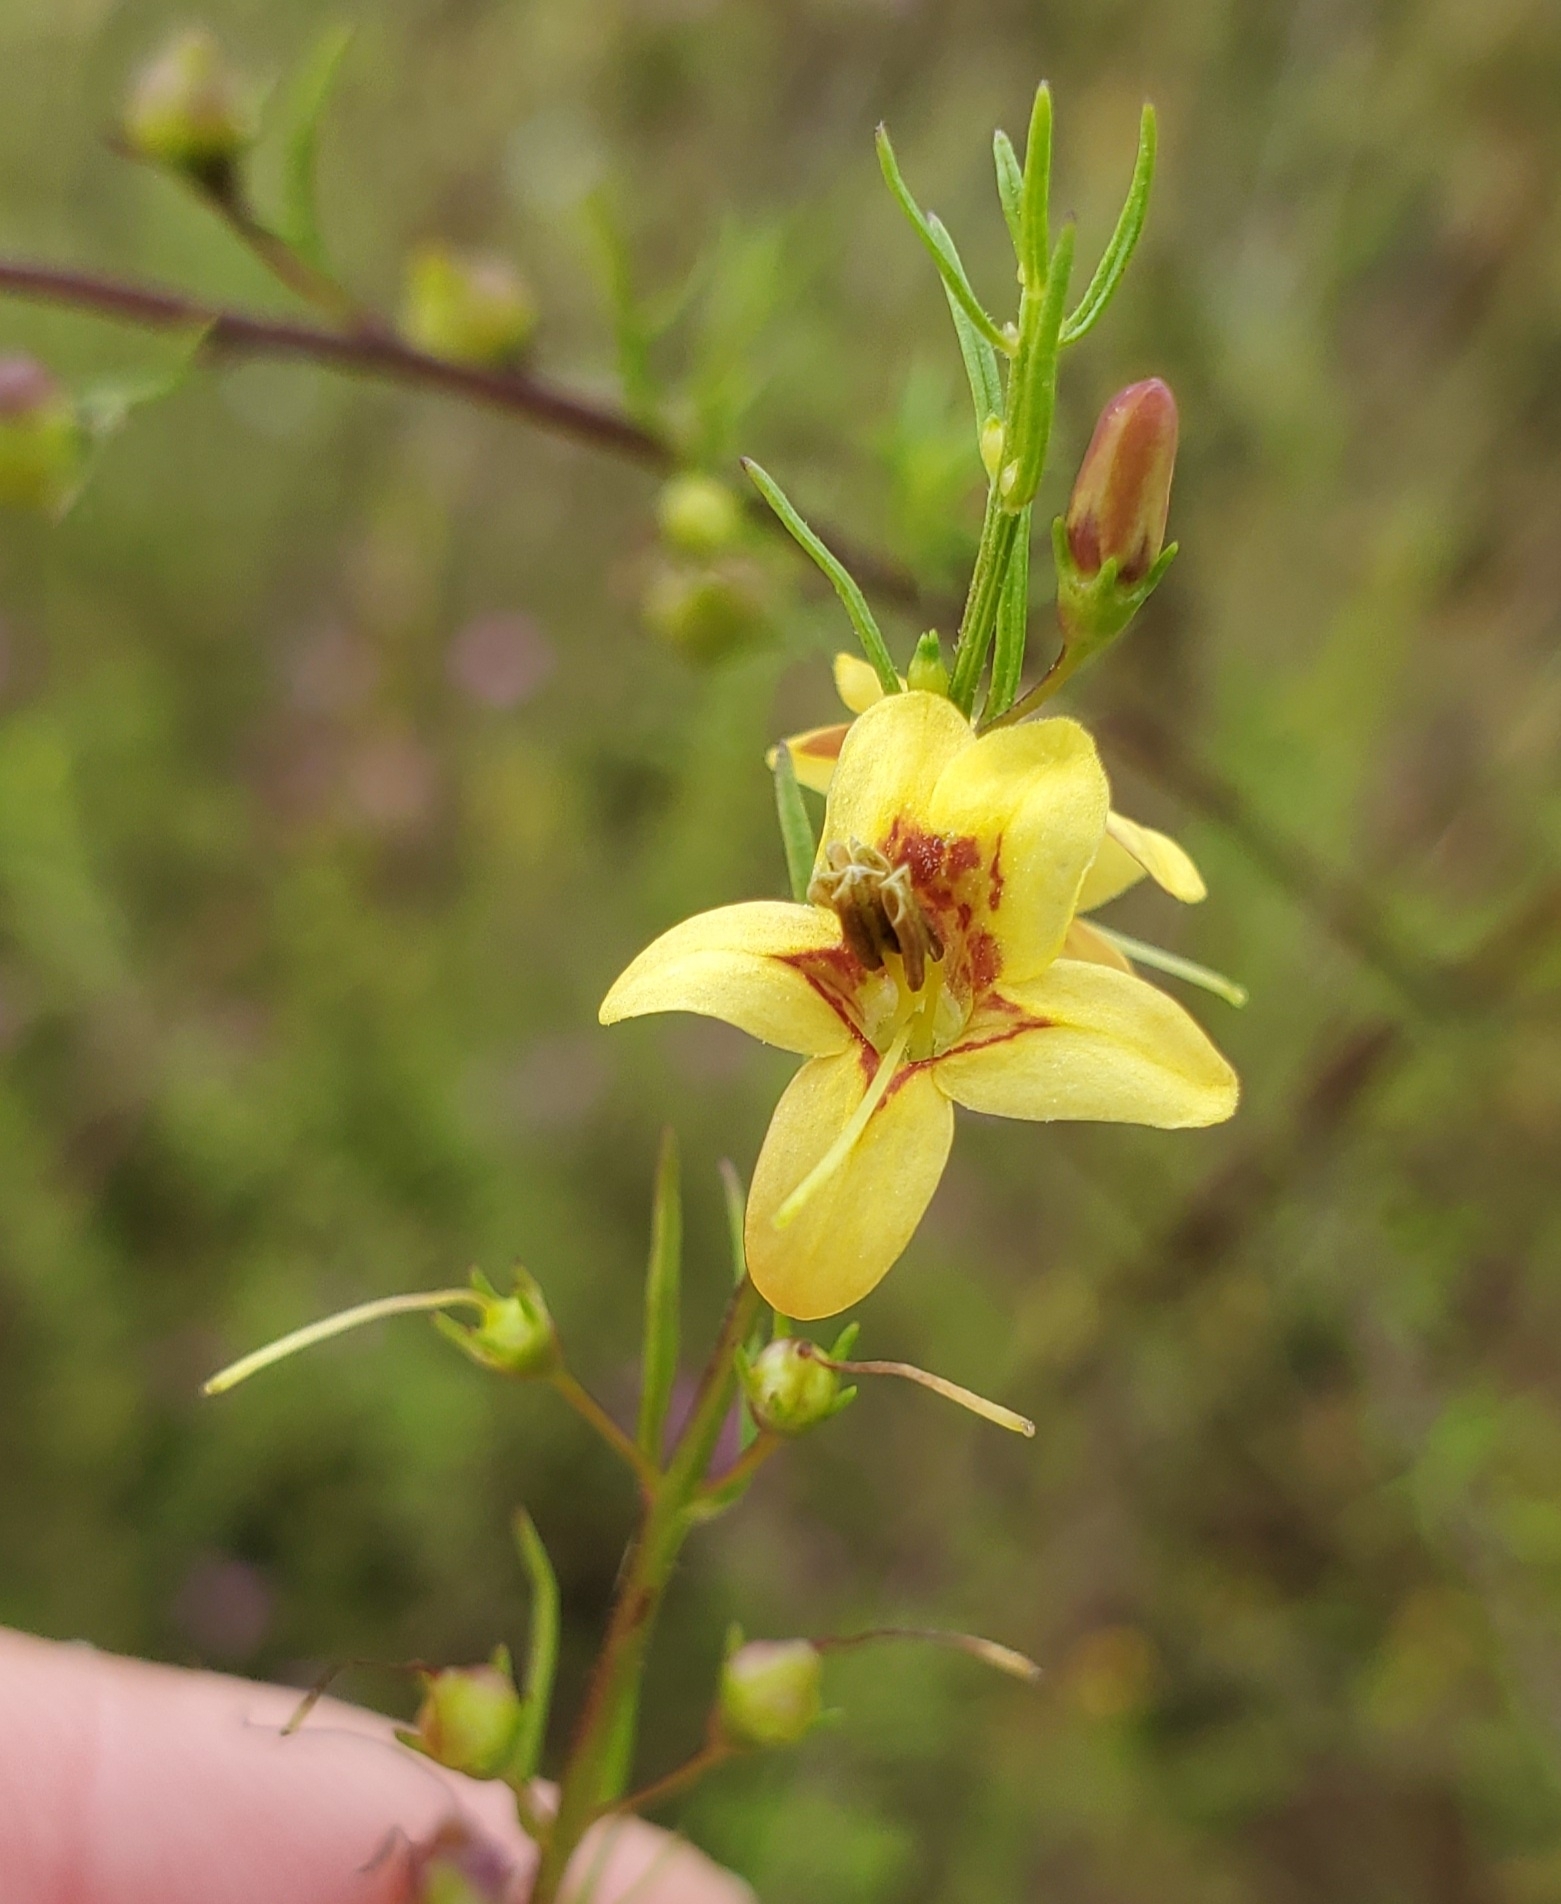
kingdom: Plantae
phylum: Tracheophyta
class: Magnoliopsida
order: Lamiales
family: Orobanchaceae
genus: Seymeria
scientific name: Seymeria cassioides
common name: Yaupon black-senna
